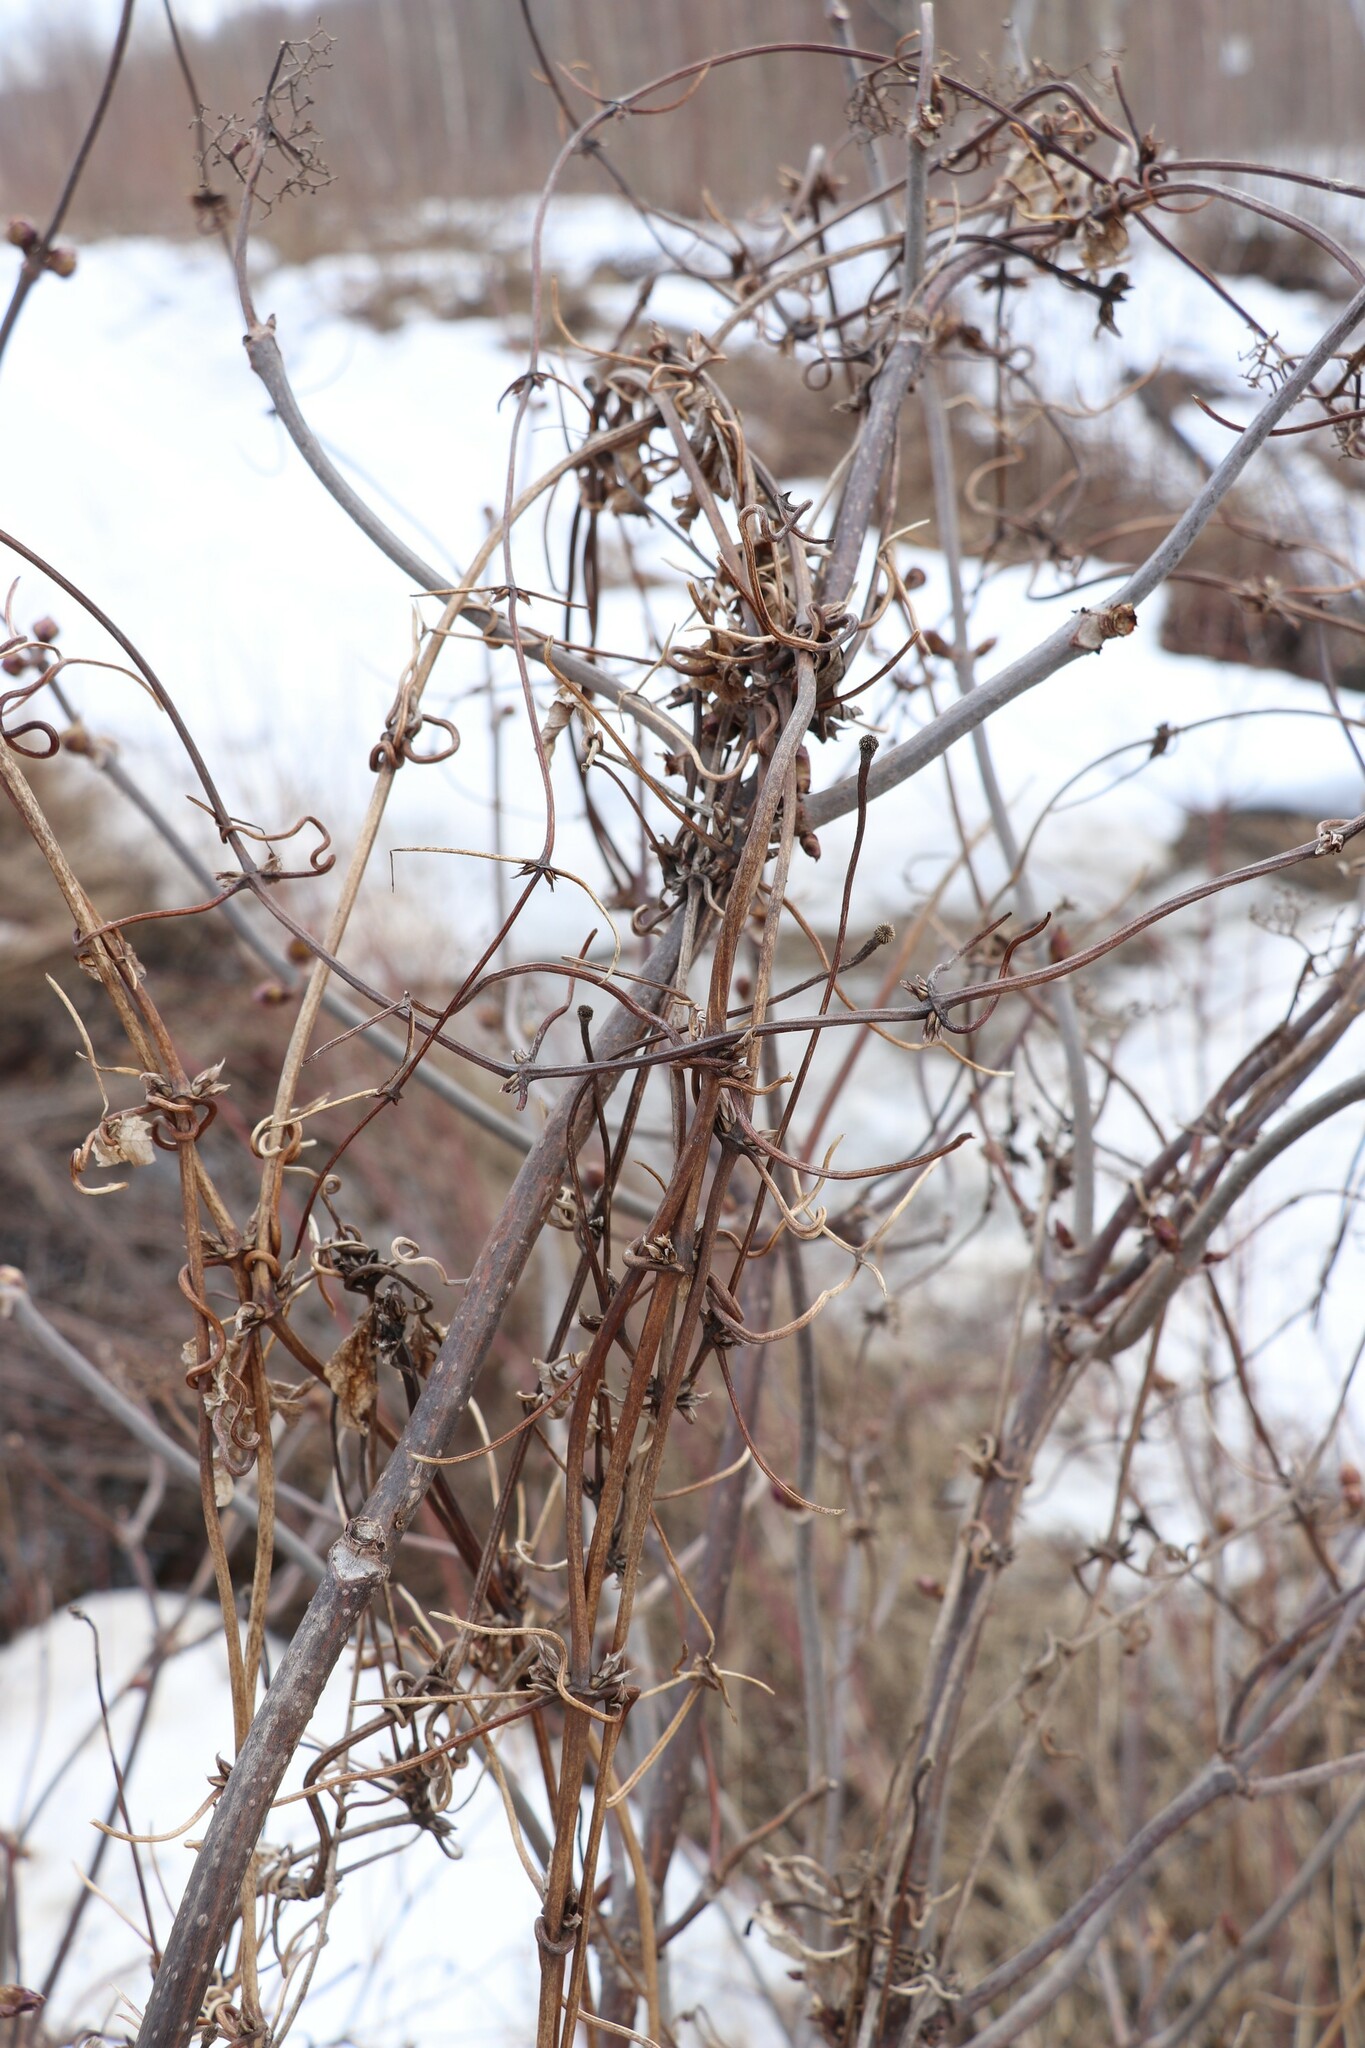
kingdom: Plantae
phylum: Tracheophyta
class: Magnoliopsida
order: Ranunculales
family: Ranunculaceae
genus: Clematis
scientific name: Clematis sibirica
